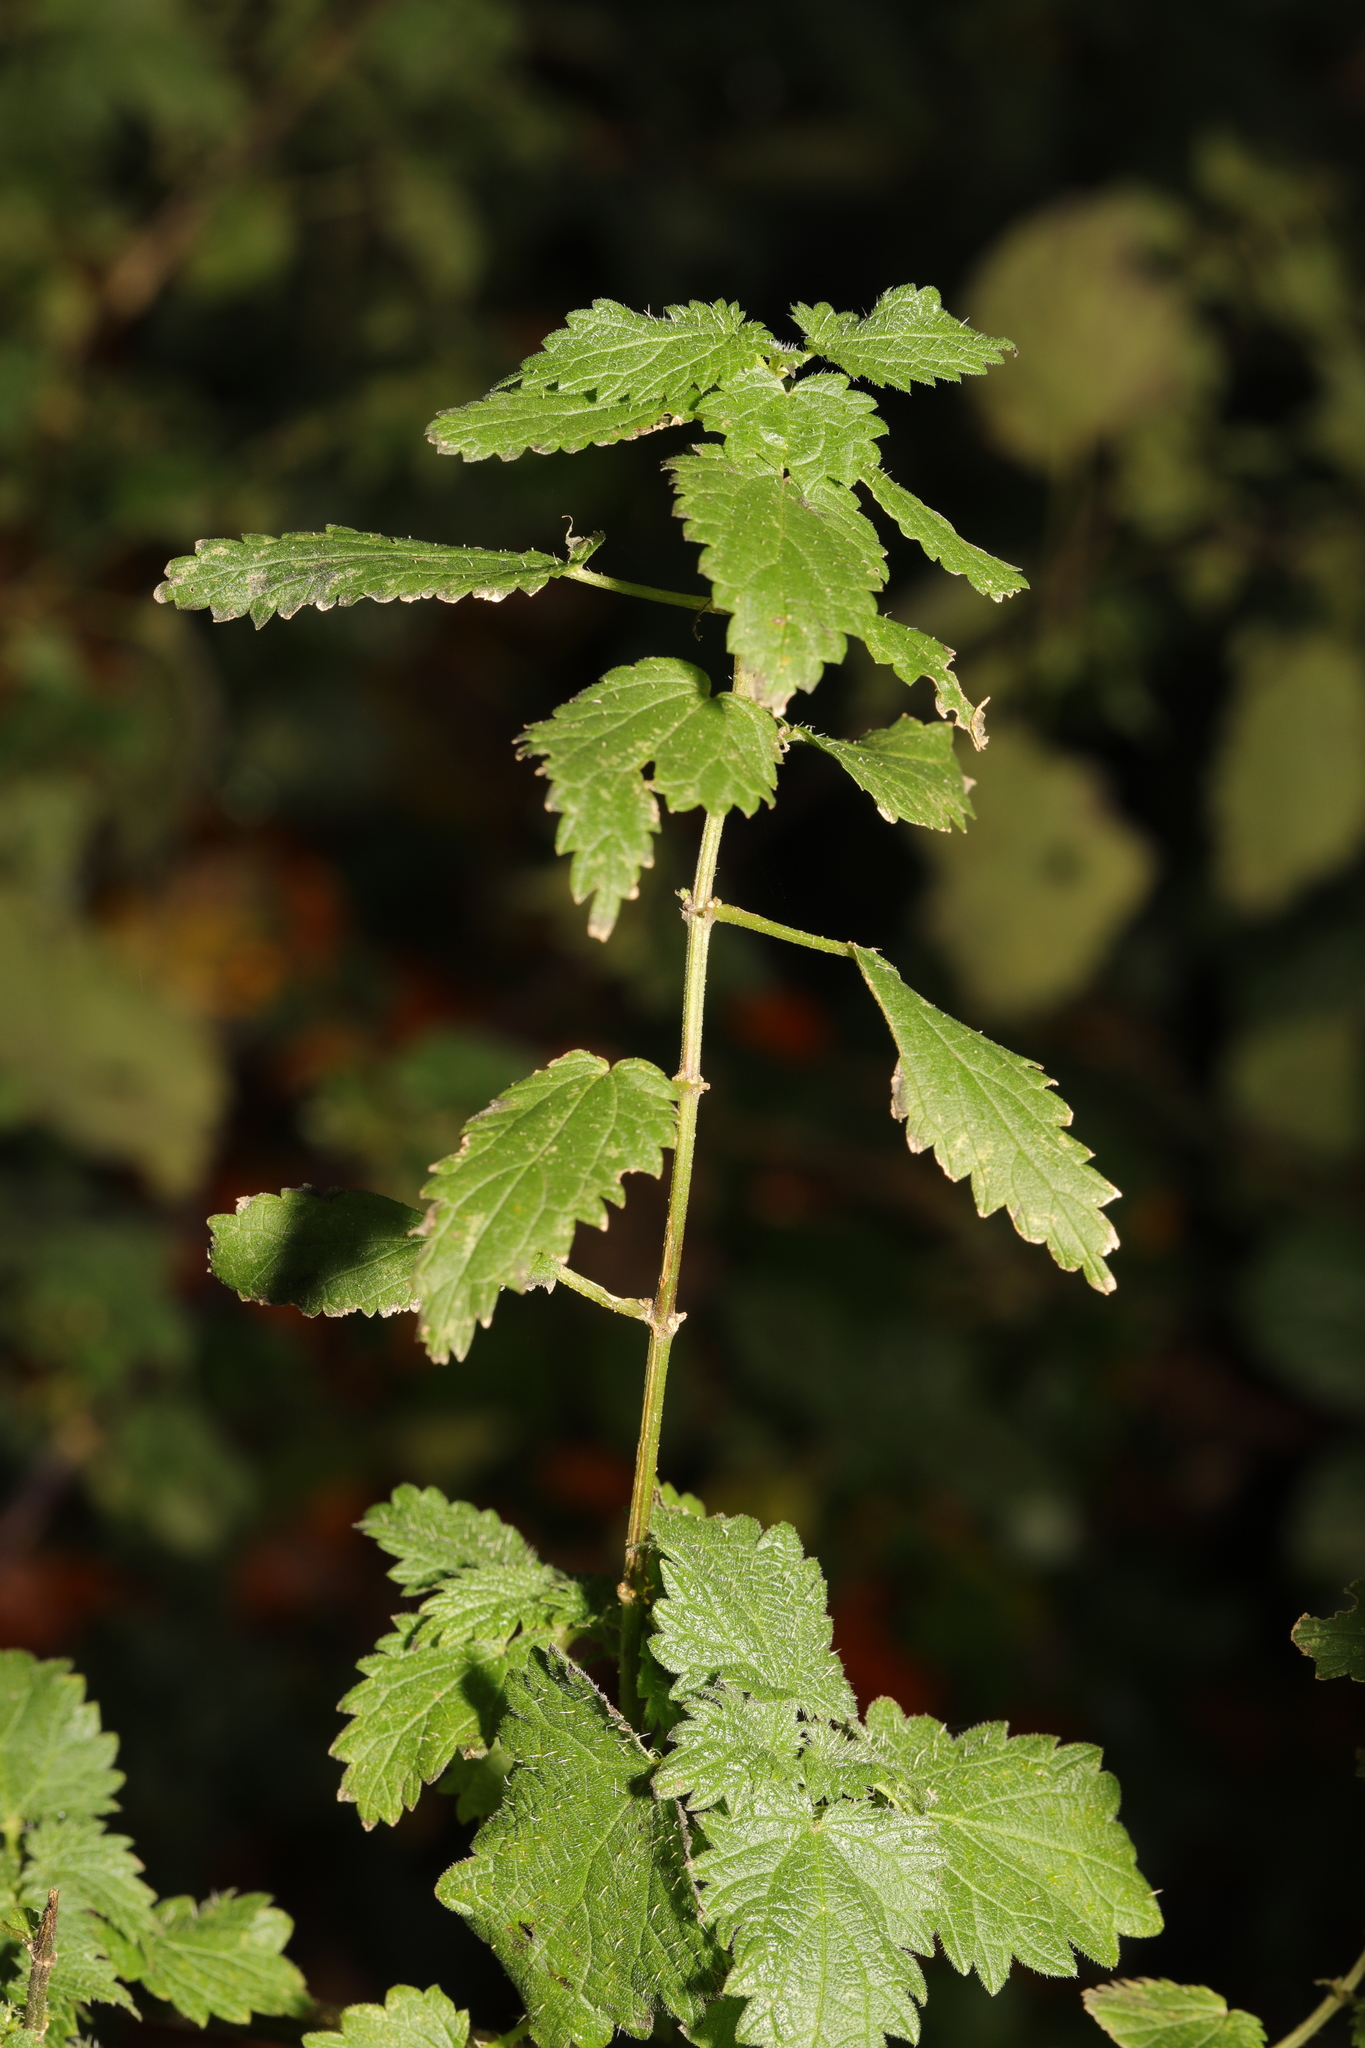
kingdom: Plantae
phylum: Tracheophyta
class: Magnoliopsida
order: Rosales
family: Urticaceae
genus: Urtica
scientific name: Urtica dioica
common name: Common nettle
